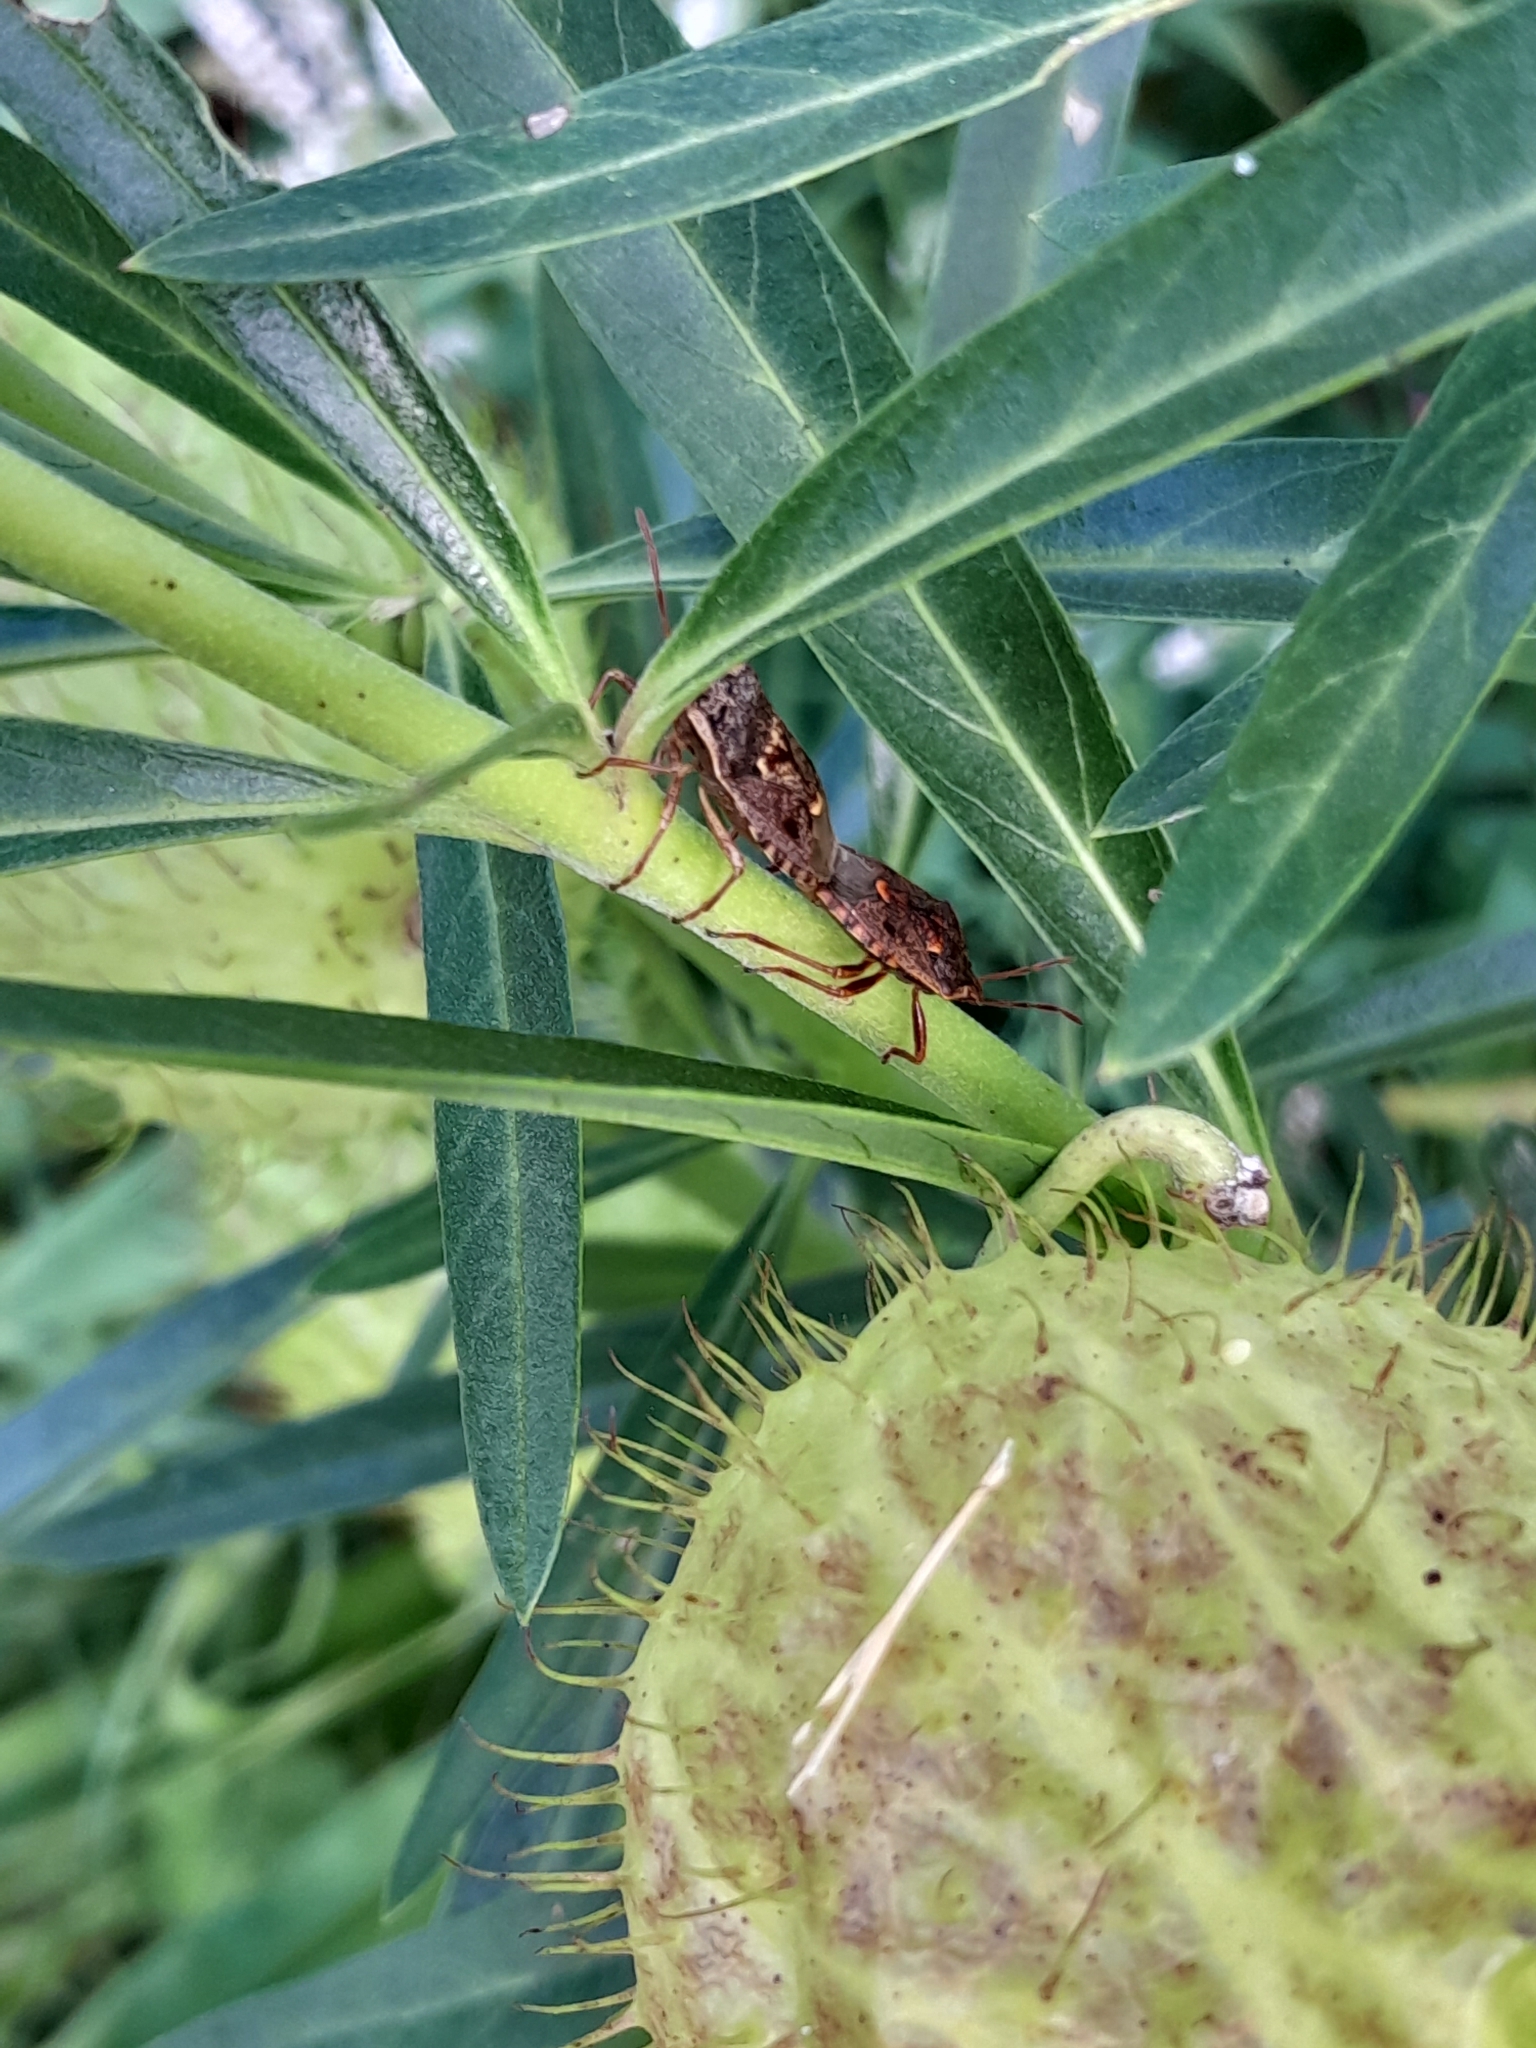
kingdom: Animalia
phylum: Arthropoda
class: Insecta
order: Hemiptera
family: Pentatomidae
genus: Cermatulus
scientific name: Cermatulus nasalis
